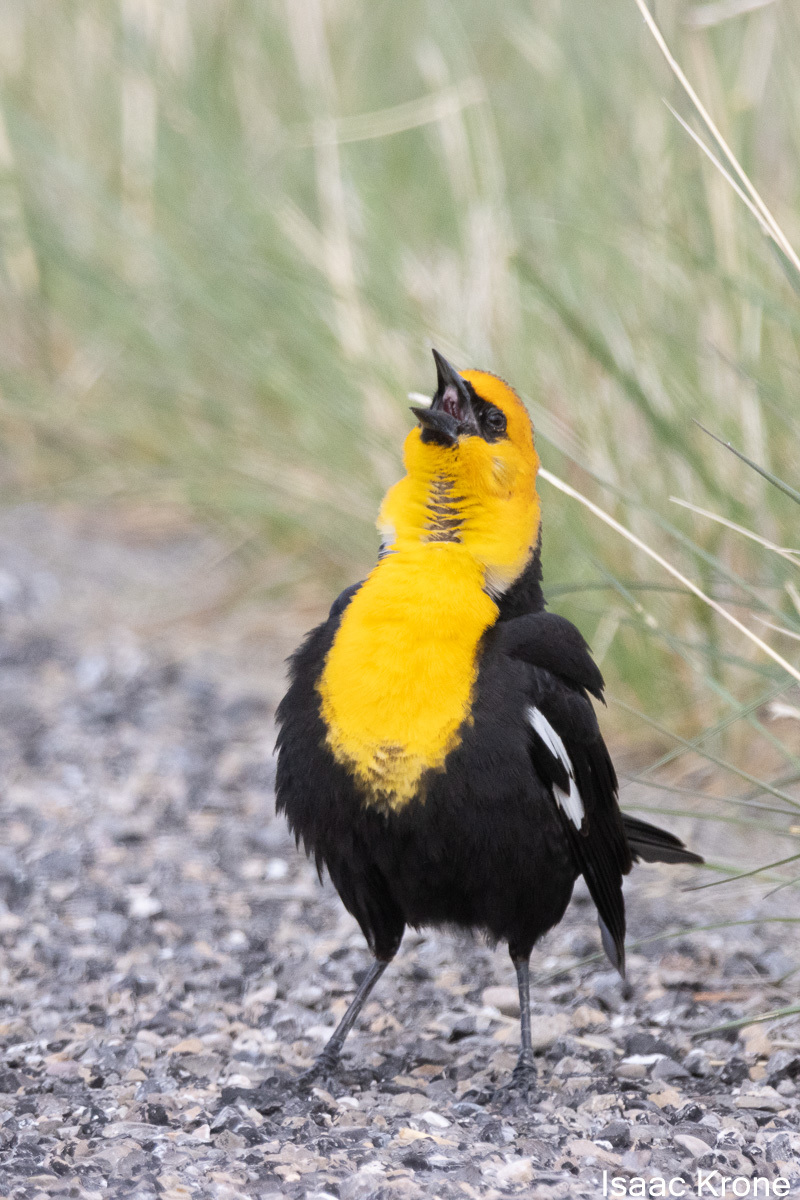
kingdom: Animalia
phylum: Chordata
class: Aves
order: Passeriformes
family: Icteridae
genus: Xanthocephalus
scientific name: Xanthocephalus xanthocephalus
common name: Yellow-headed blackbird
